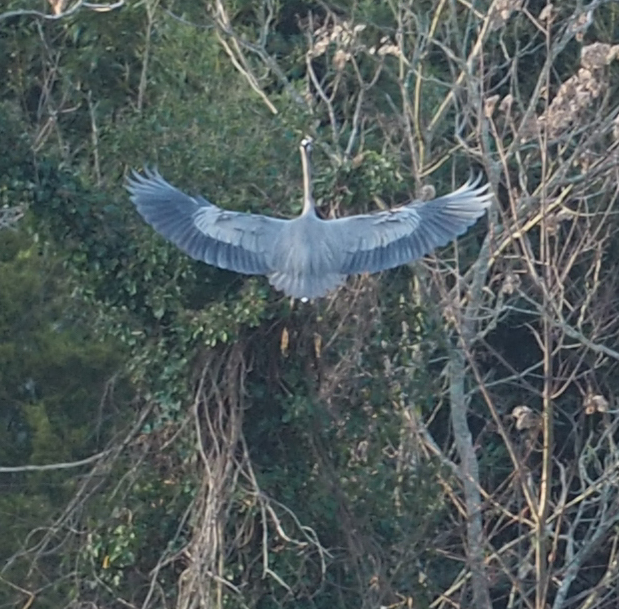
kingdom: Animalia
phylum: Chordata
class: Aves
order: Pelecaniformes
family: Ardeidae
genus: Ardea
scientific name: Ardea herodias
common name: Great blue heron
